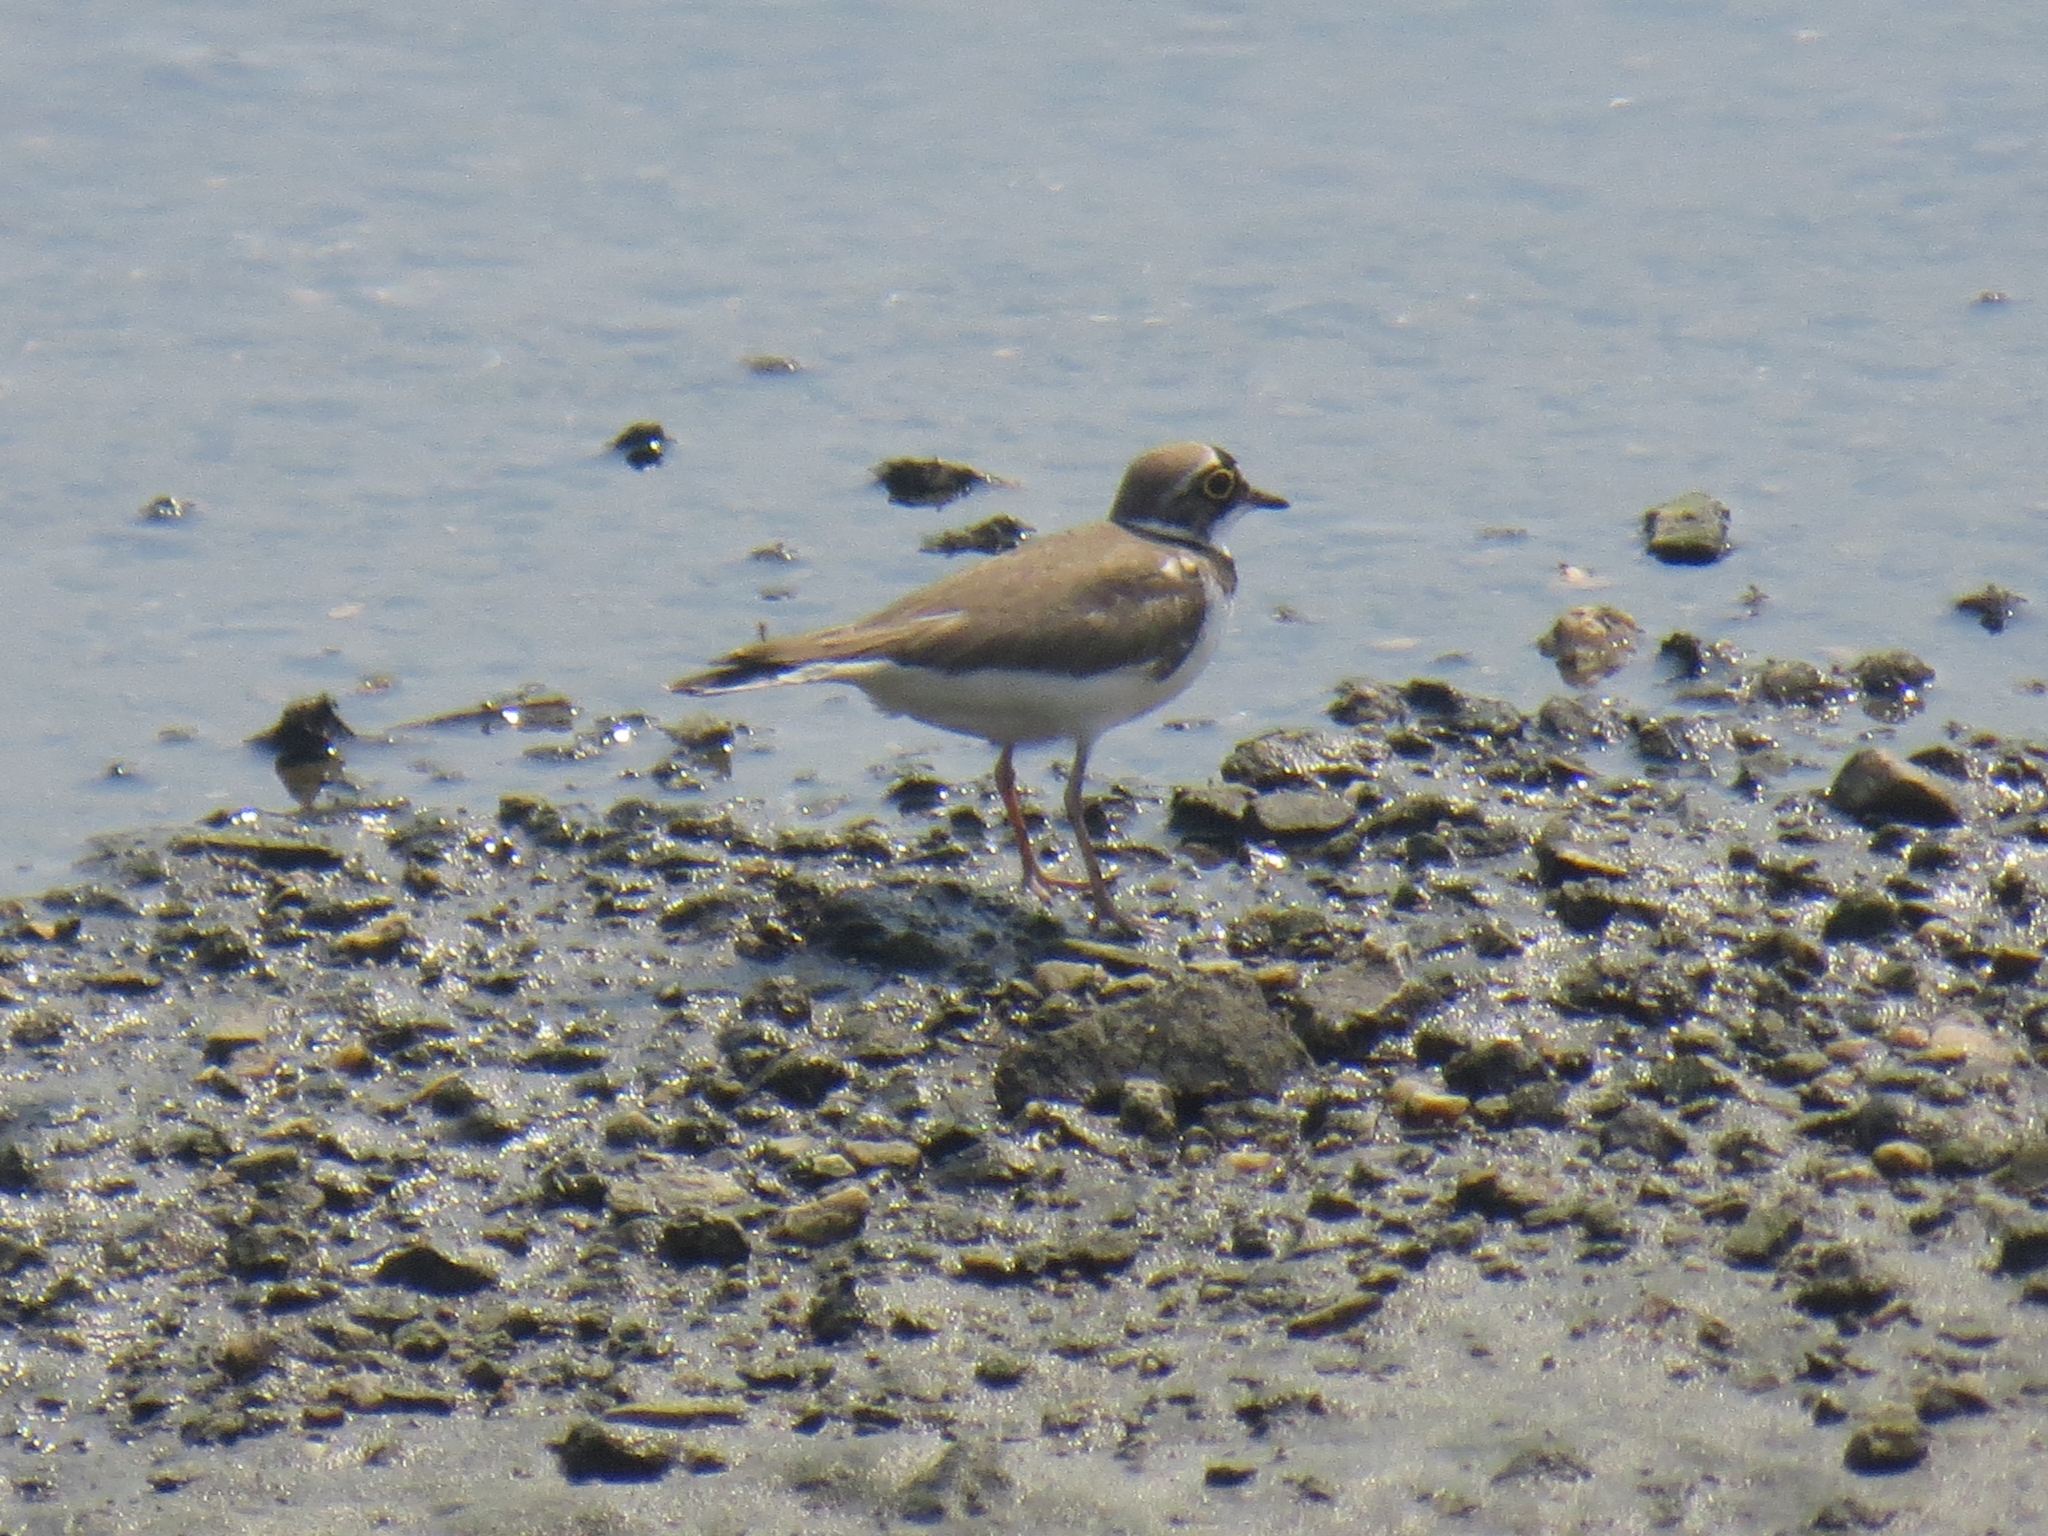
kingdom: Animalia
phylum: Chordata
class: Aves
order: Charadriiformes
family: Charadriidae
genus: Charadrius
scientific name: Charadrius dubius
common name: Little ringed plover
